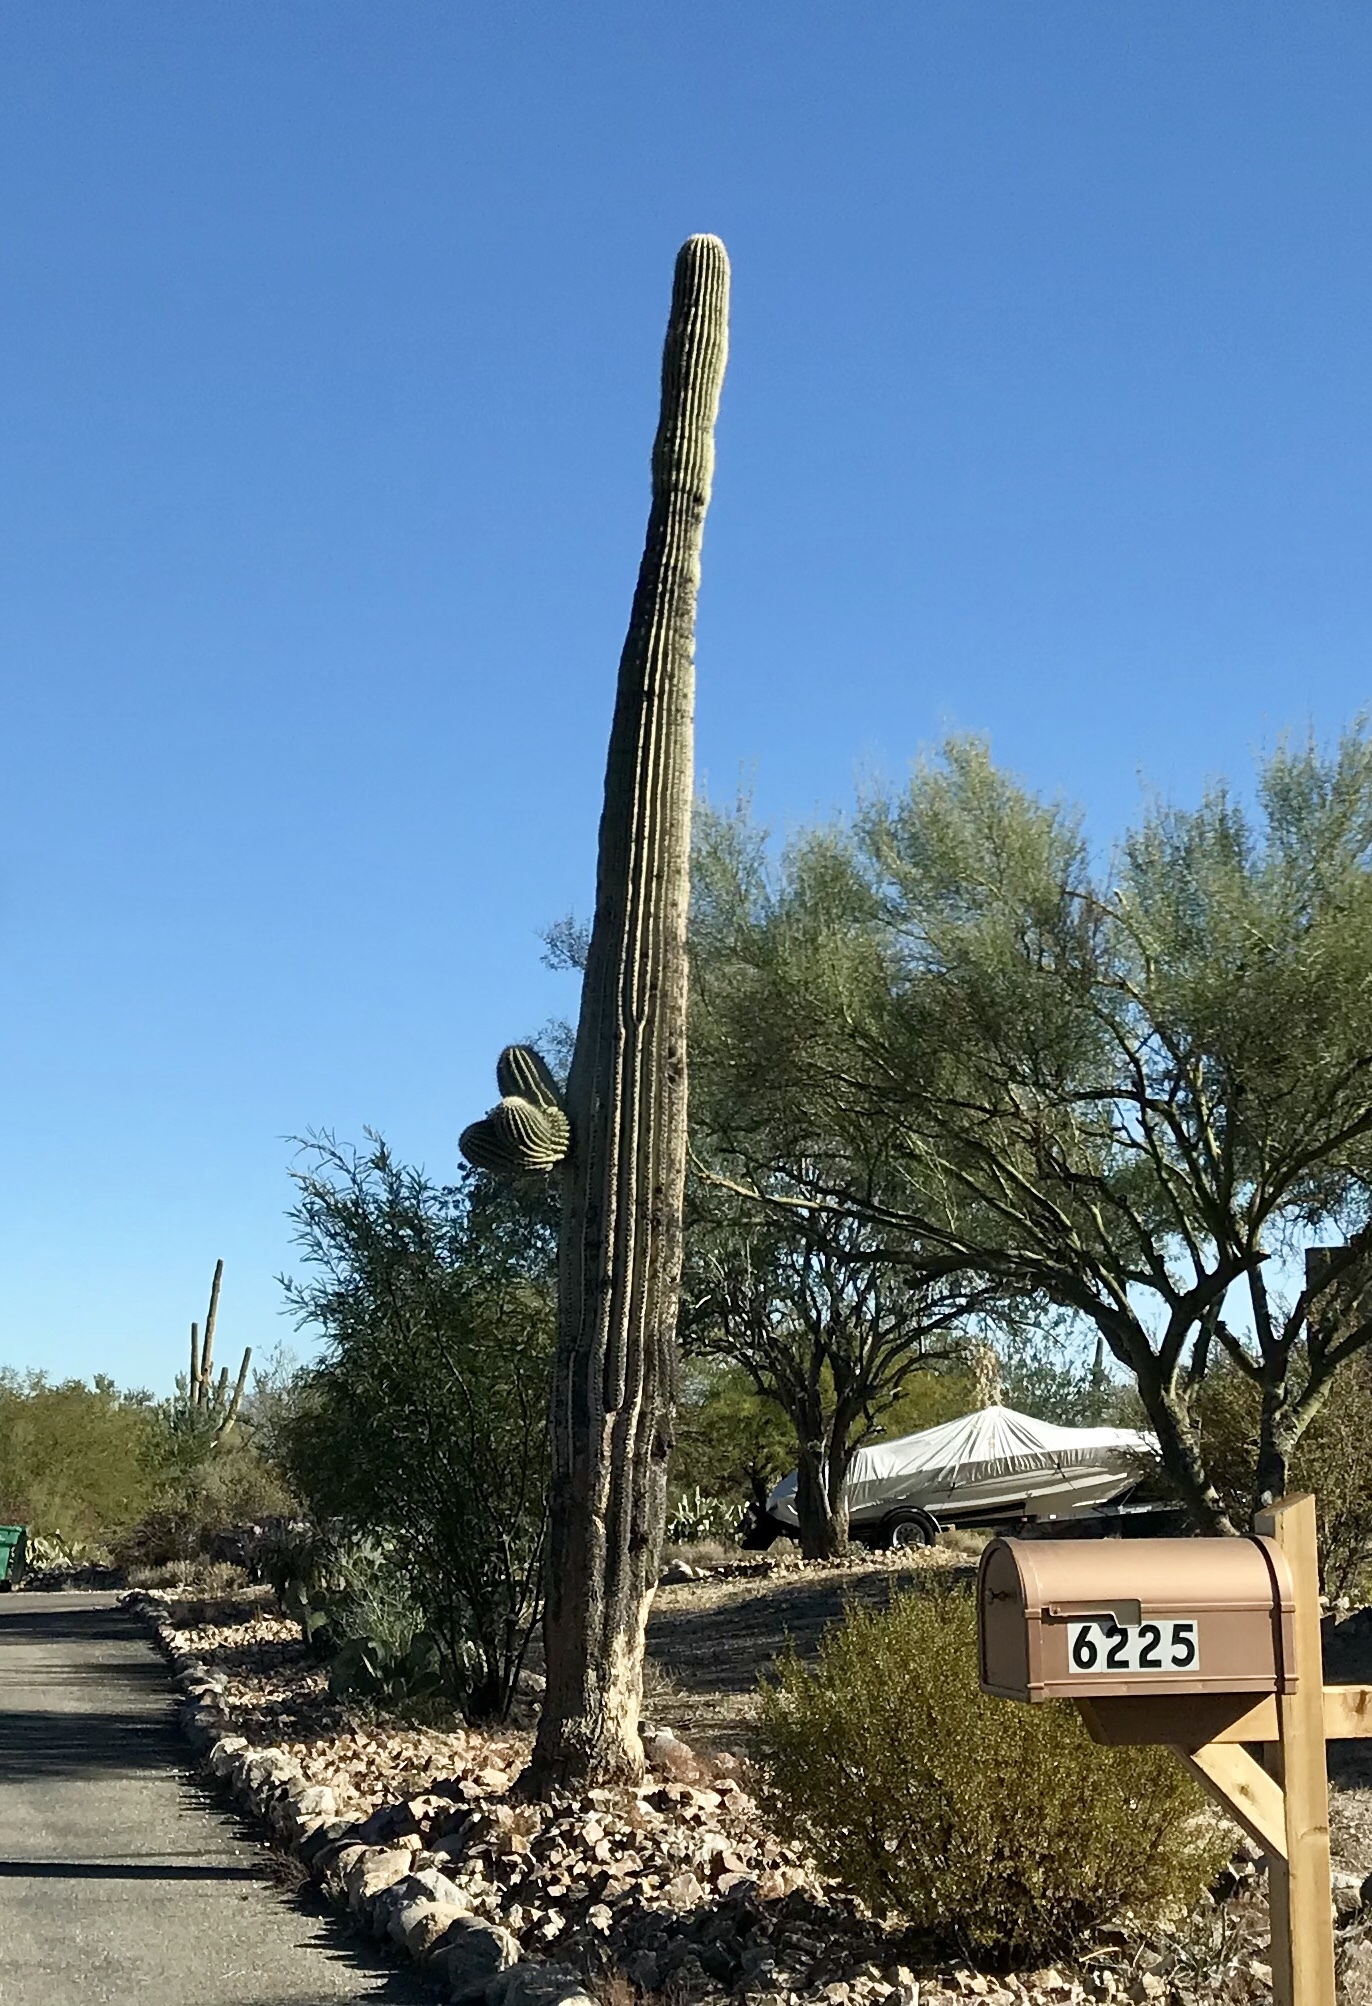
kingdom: Plantae
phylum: Tracheophyta
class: Magnoliopsida
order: Caryophyllales
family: Cactaceae
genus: Carnegiea
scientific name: Carnegiea gigantea
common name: Saguaro
